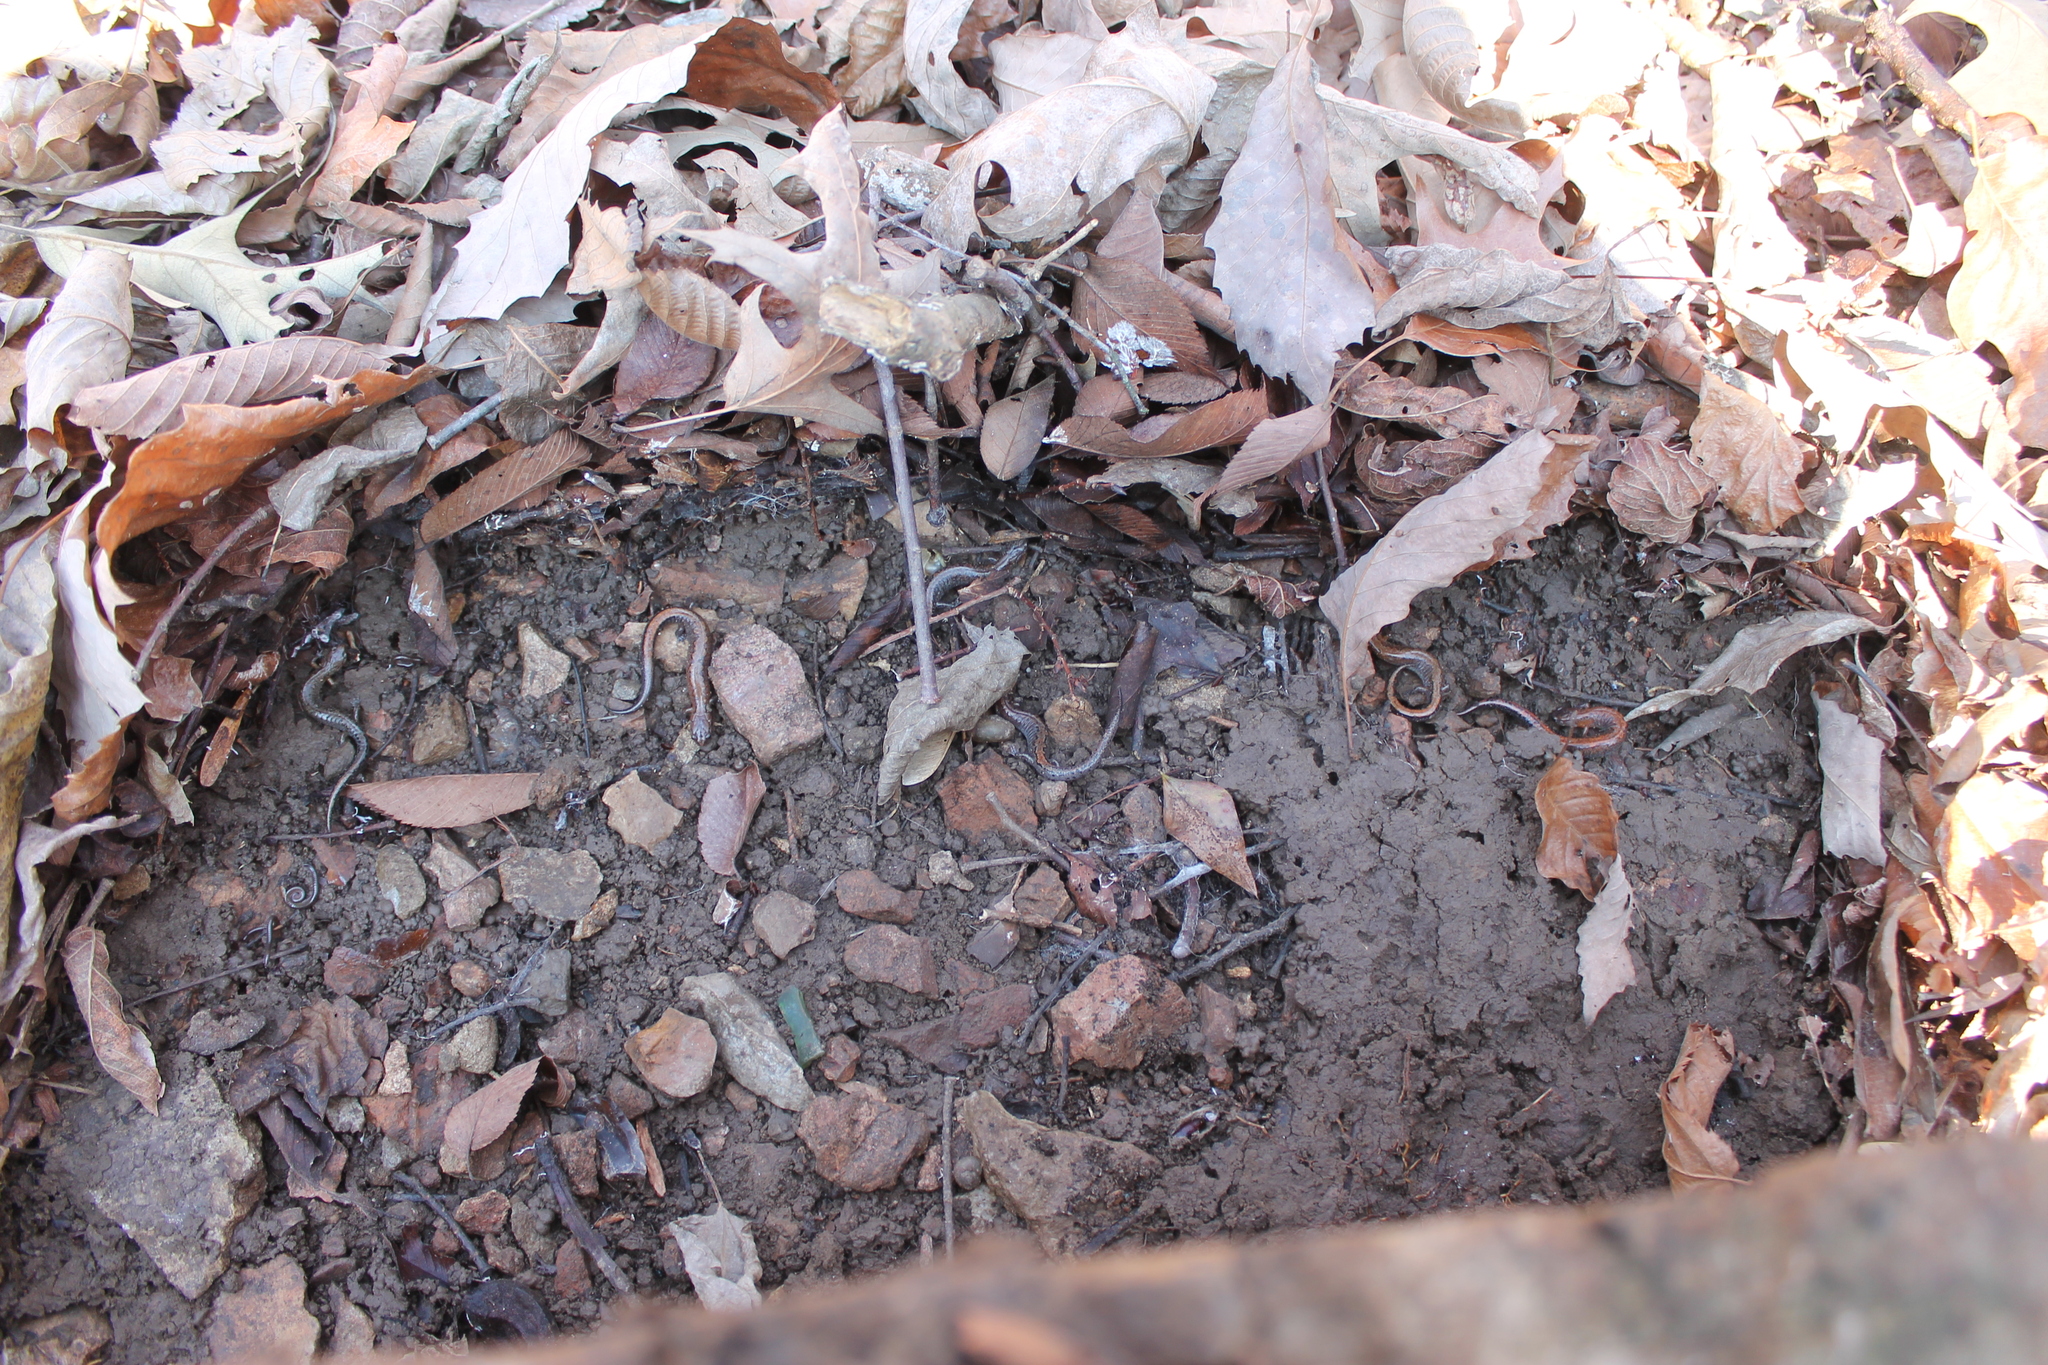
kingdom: Animalia
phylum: Chordata
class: Amphibia
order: Caudata
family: Plethodontidae
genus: Plethodon
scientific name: Plethodon dorsalis
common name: Northern zigzag salamander
